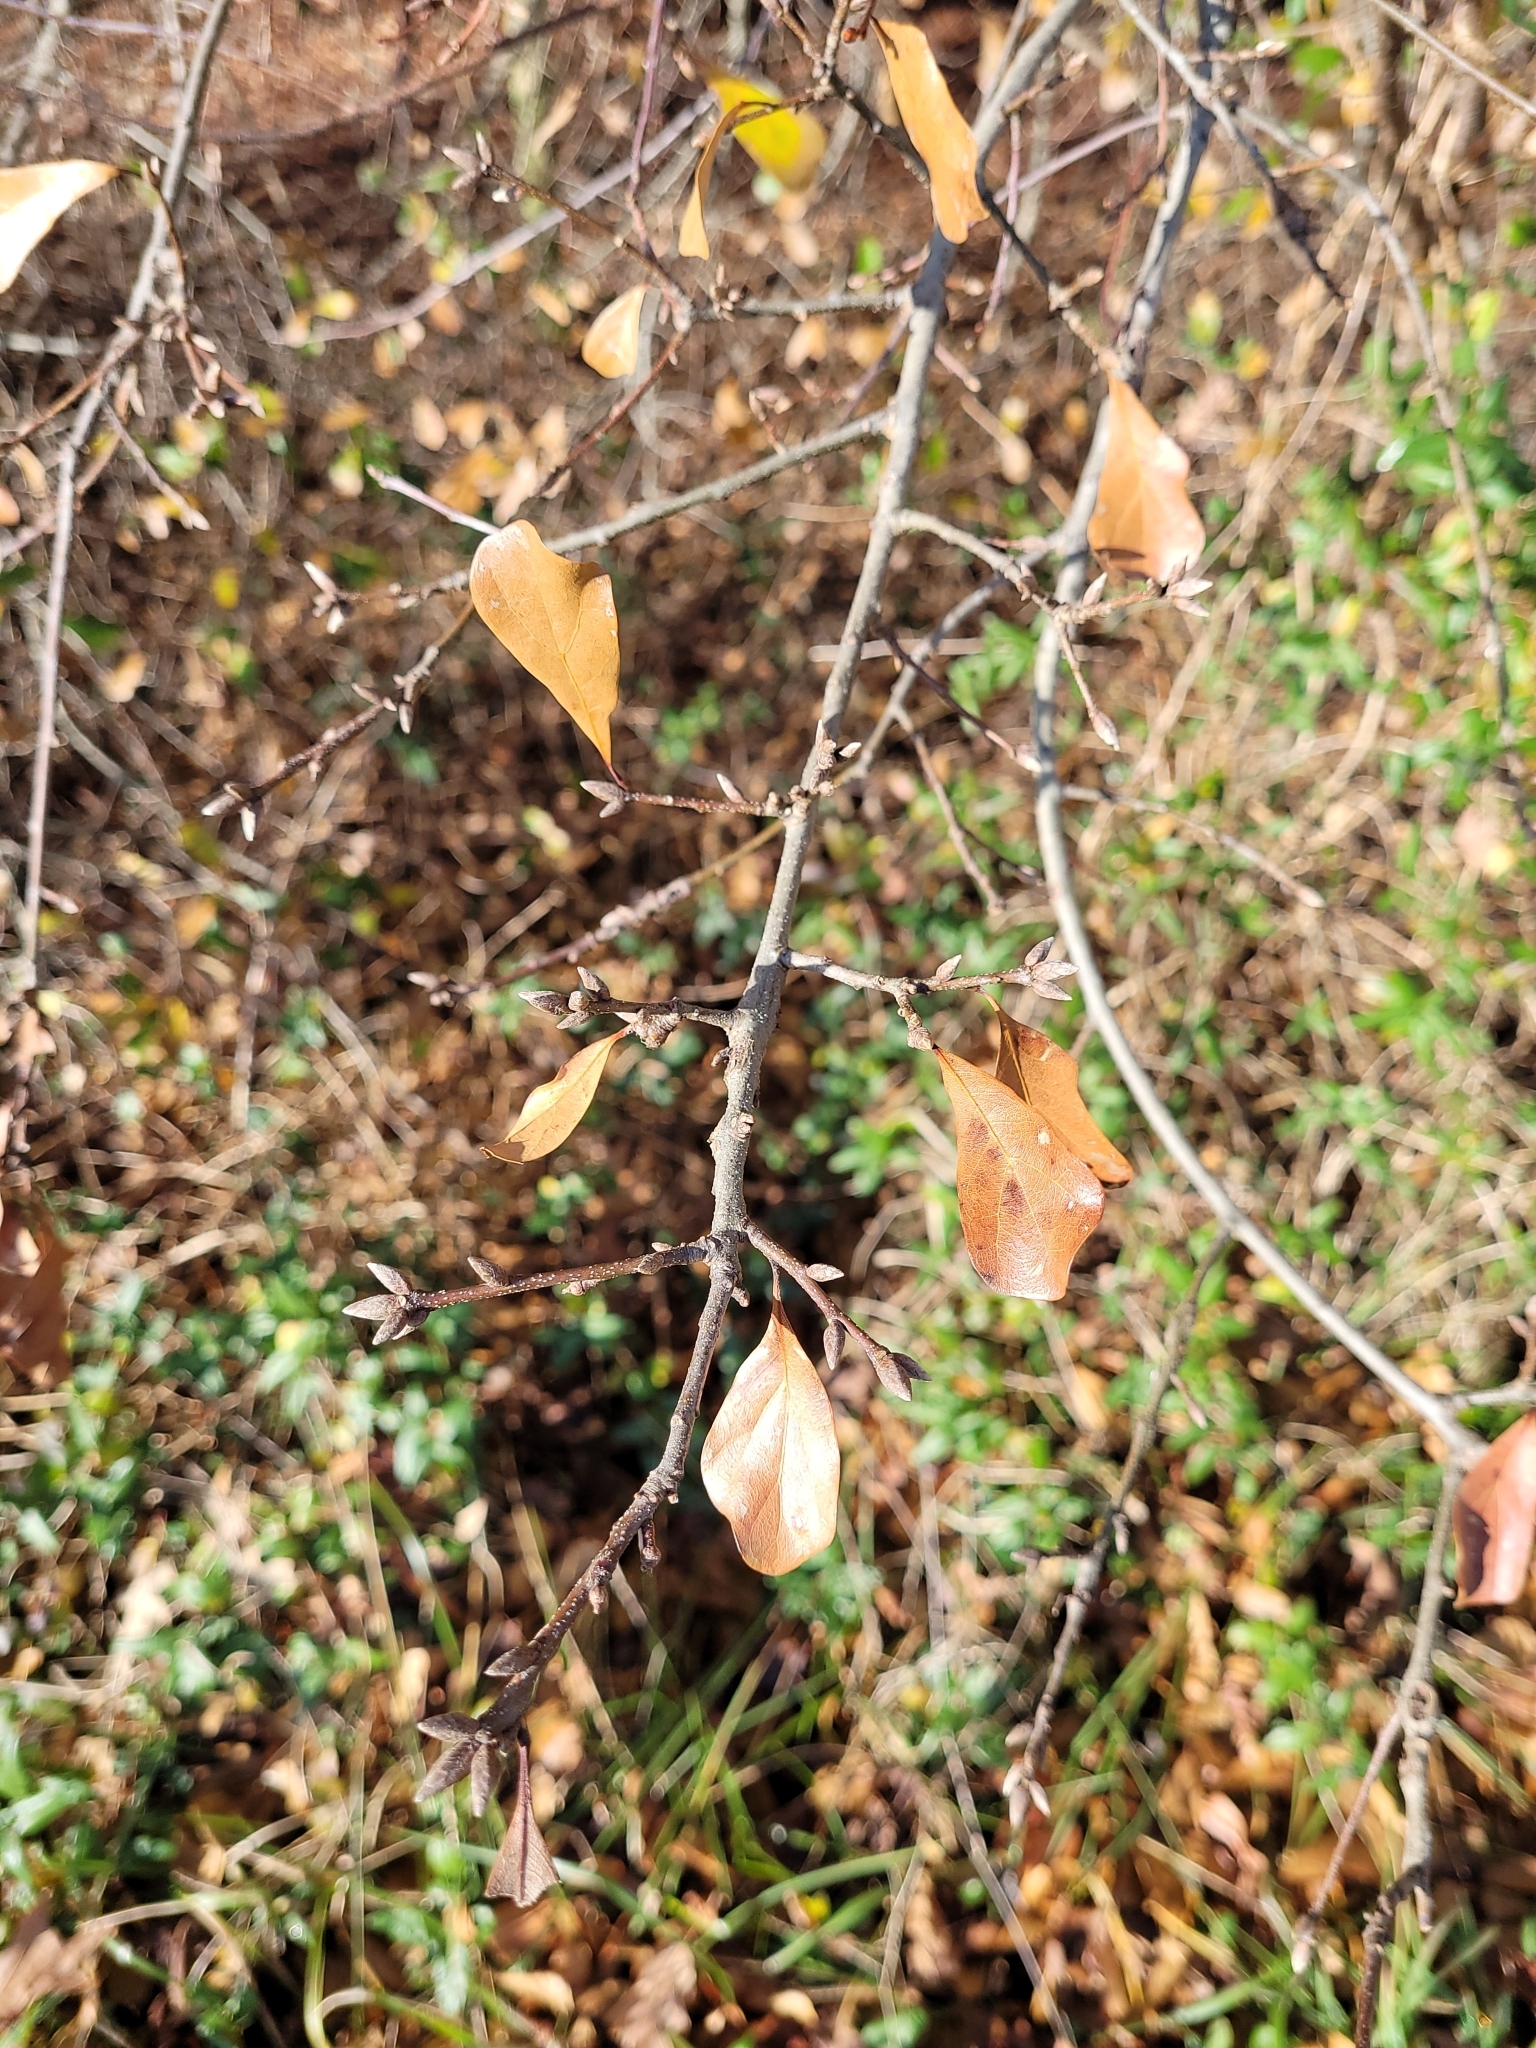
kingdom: Plantae
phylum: Tracheophyta
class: Magnoliopsida
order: Fagales
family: Fagaceae
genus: Quercus
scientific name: Quercus nigra
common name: Water oak
